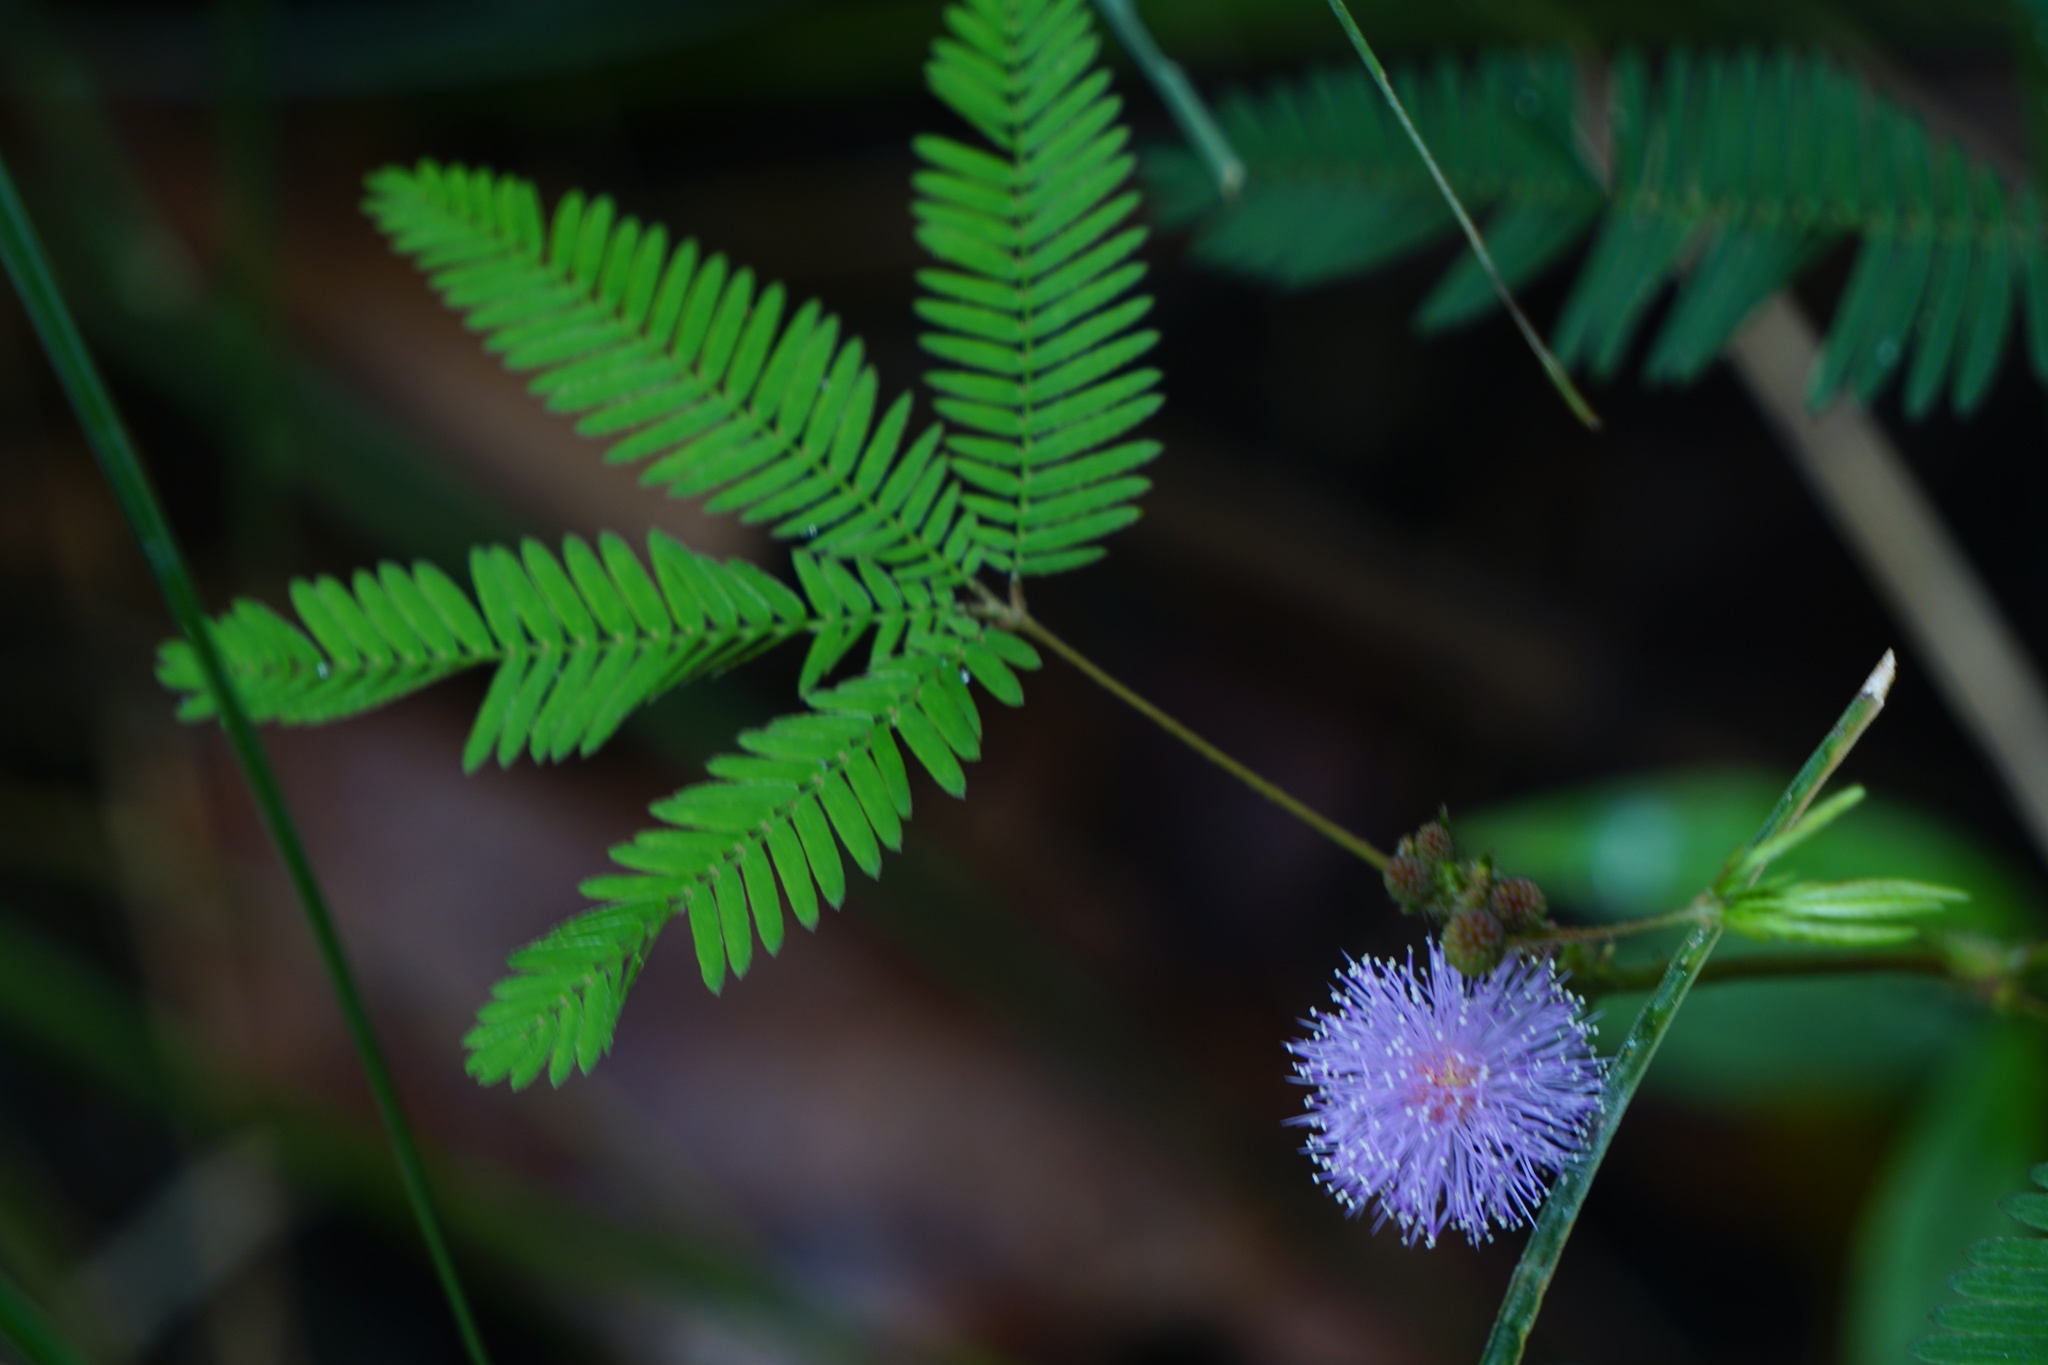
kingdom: Plantae
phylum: Tracheophyta
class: Magnoliopsida
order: Fabales
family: Fabaceae
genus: Mimosa
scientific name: Mimosa pudica
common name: Sensitive plant
